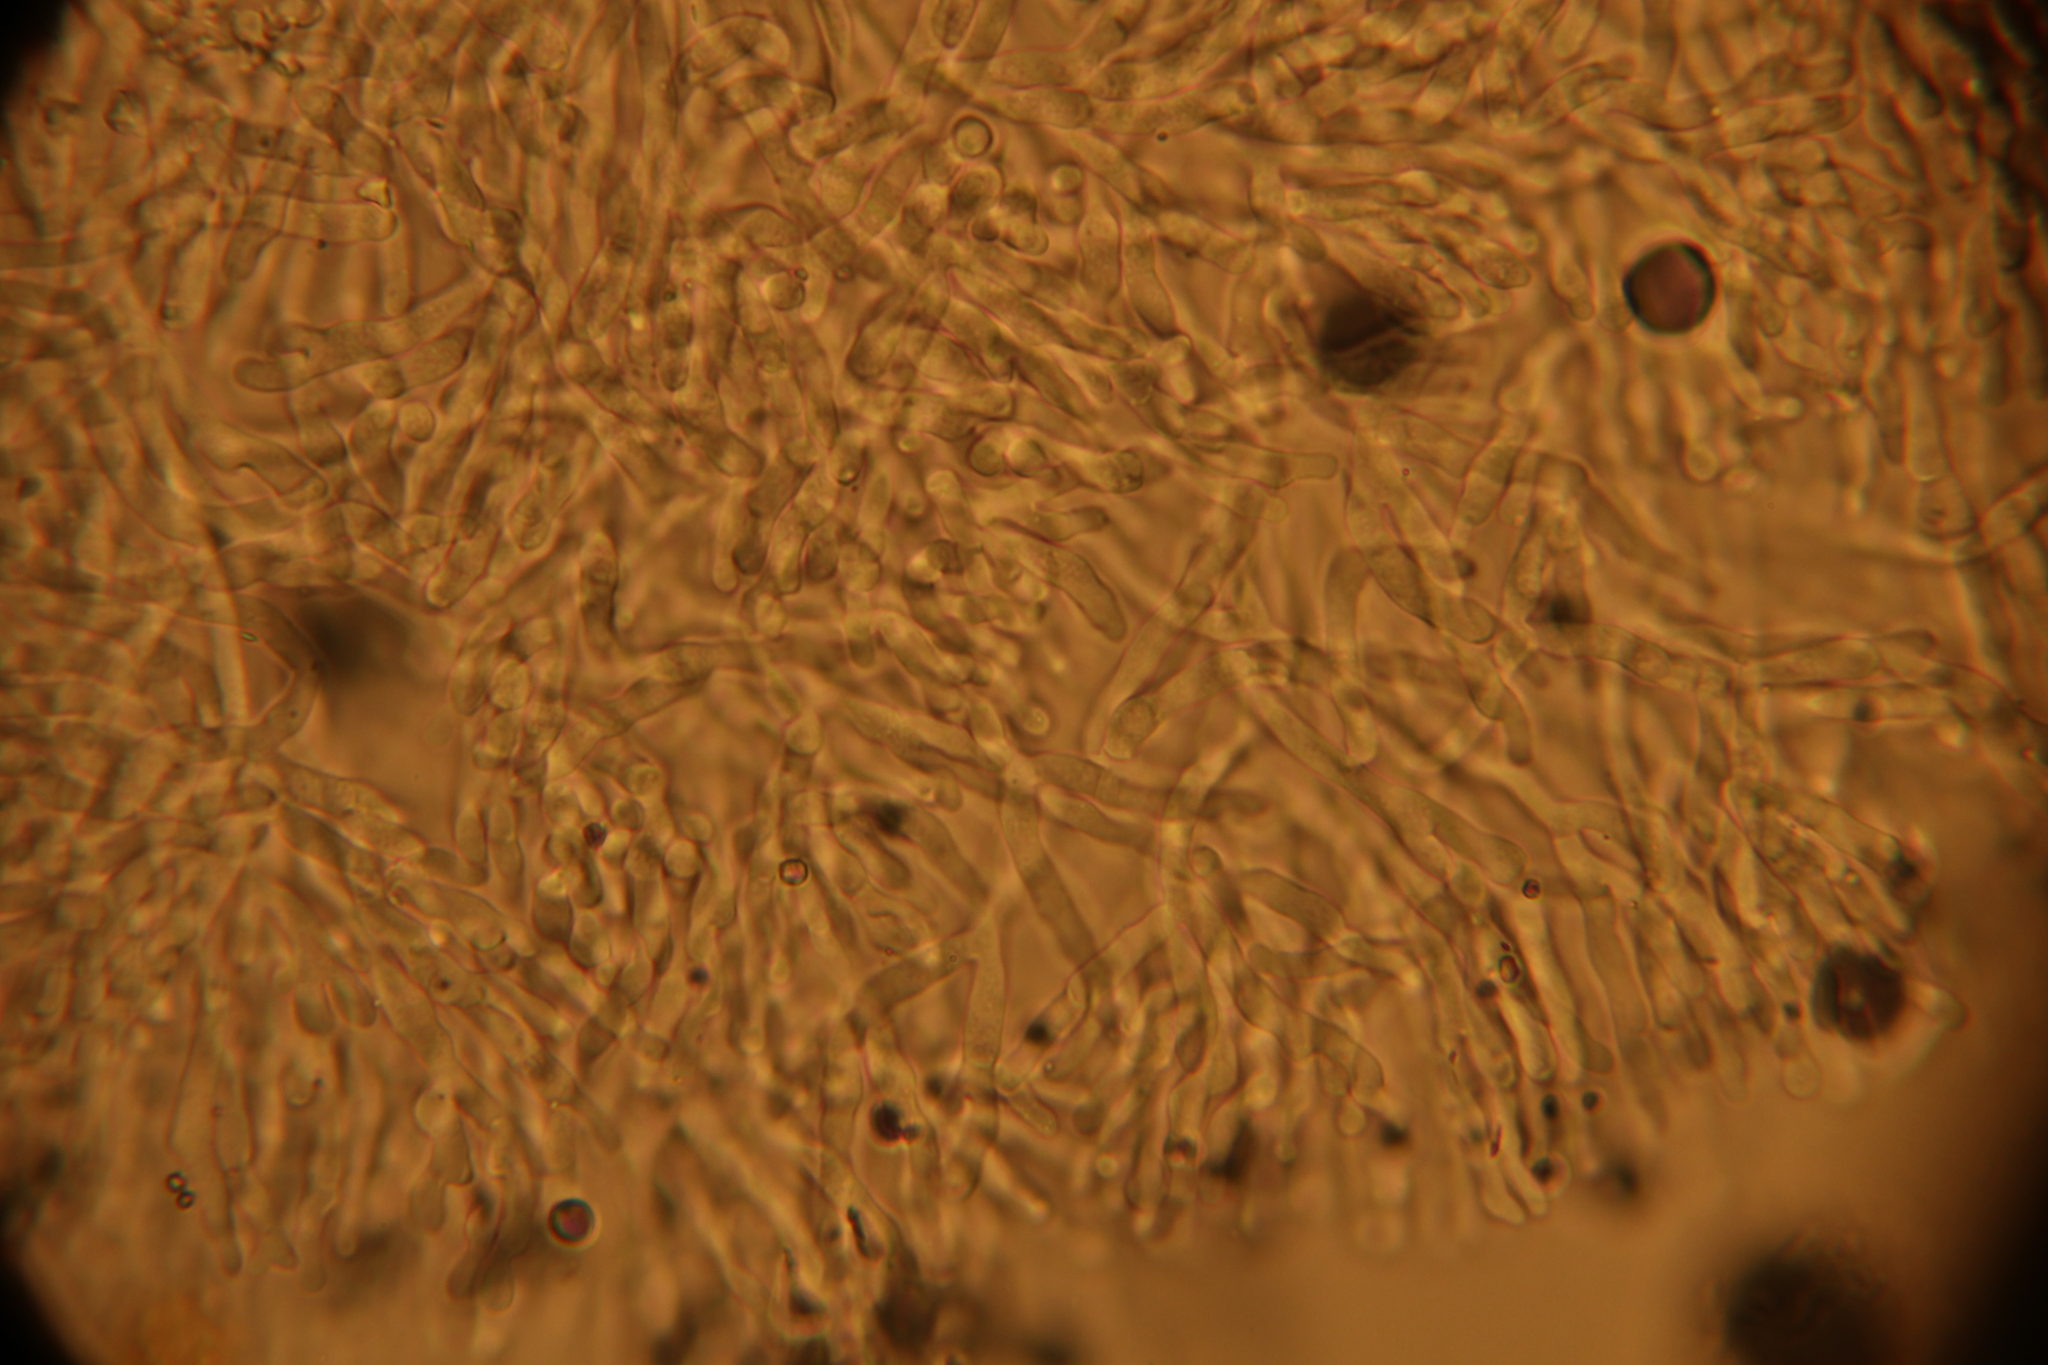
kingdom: Fungi
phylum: Ascomycota
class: Eurotiomycetes
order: Eurotiales
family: Aspergillaceae
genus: Penicillium
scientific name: Penicillium vulpinum
